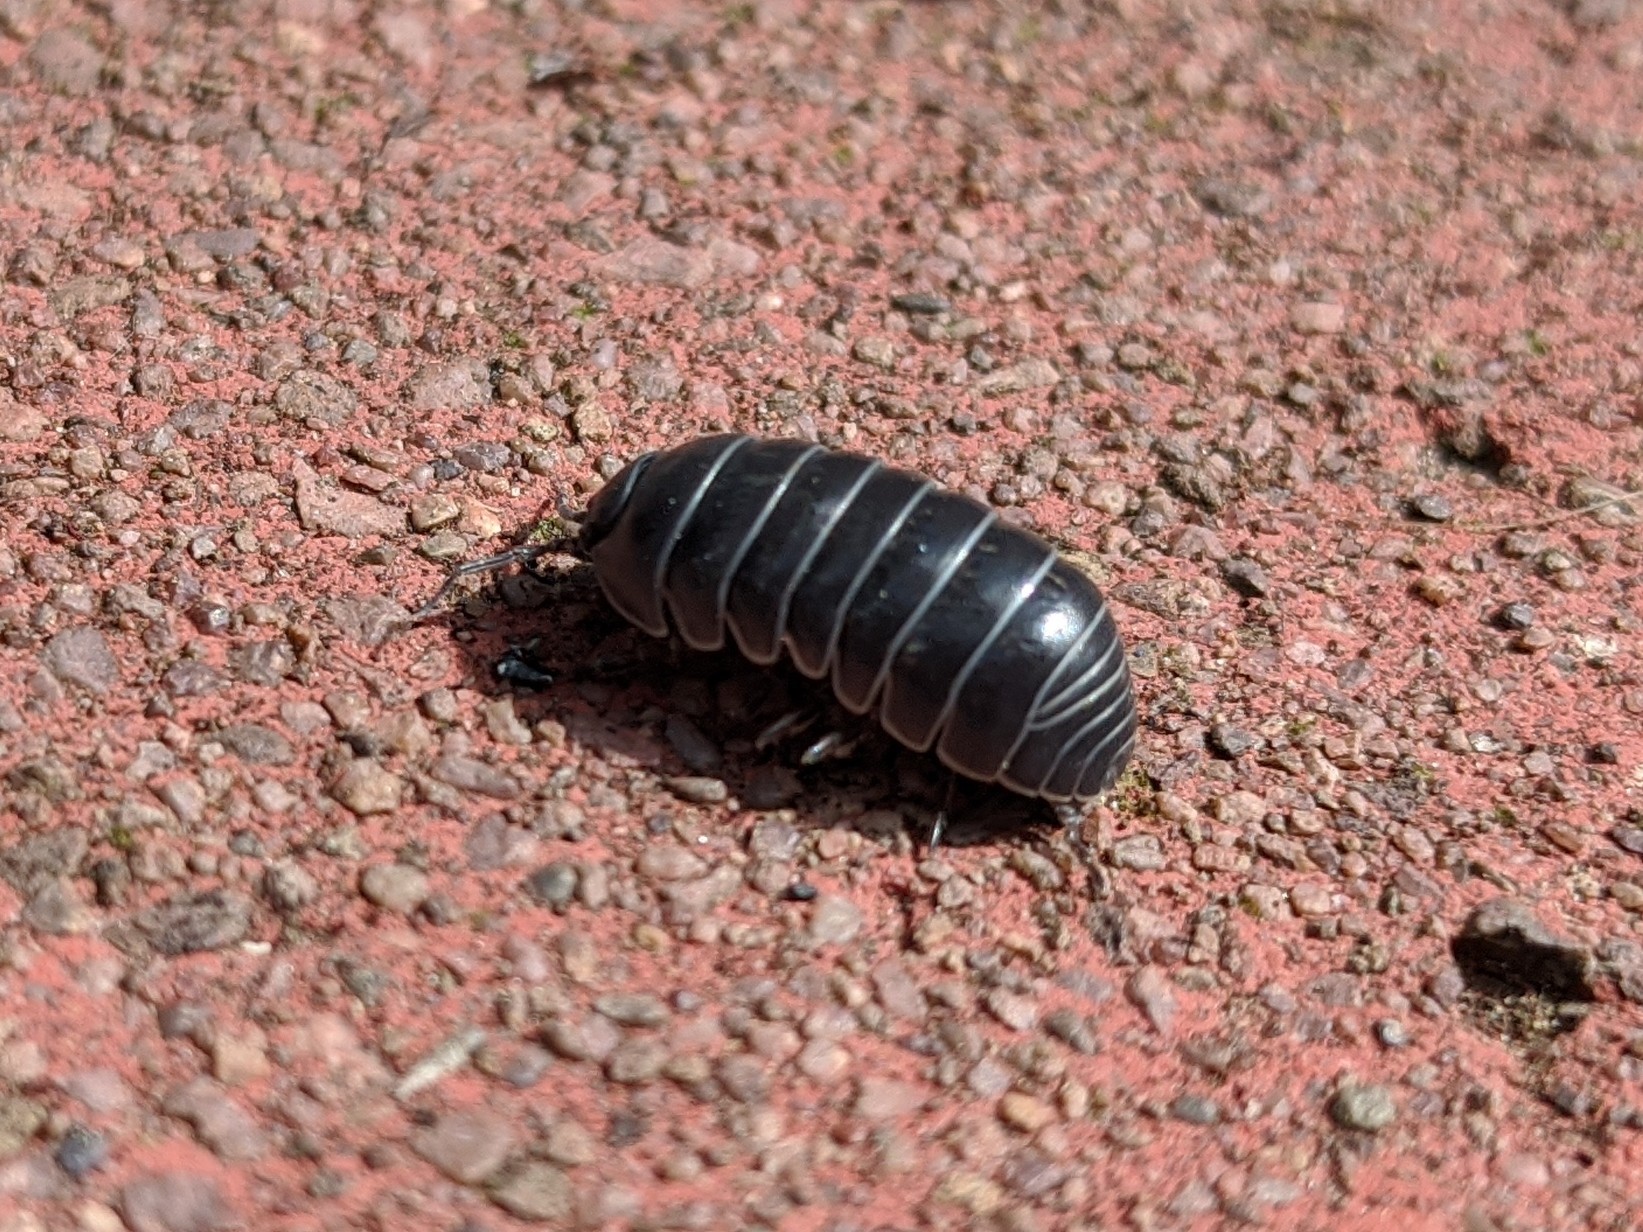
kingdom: Animalia
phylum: Arthropoda
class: Malacostraca
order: Isopoda
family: Armadillidiidae
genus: Armadillidium
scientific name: Armadillidium vulgare
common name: Common pill woodlouse
